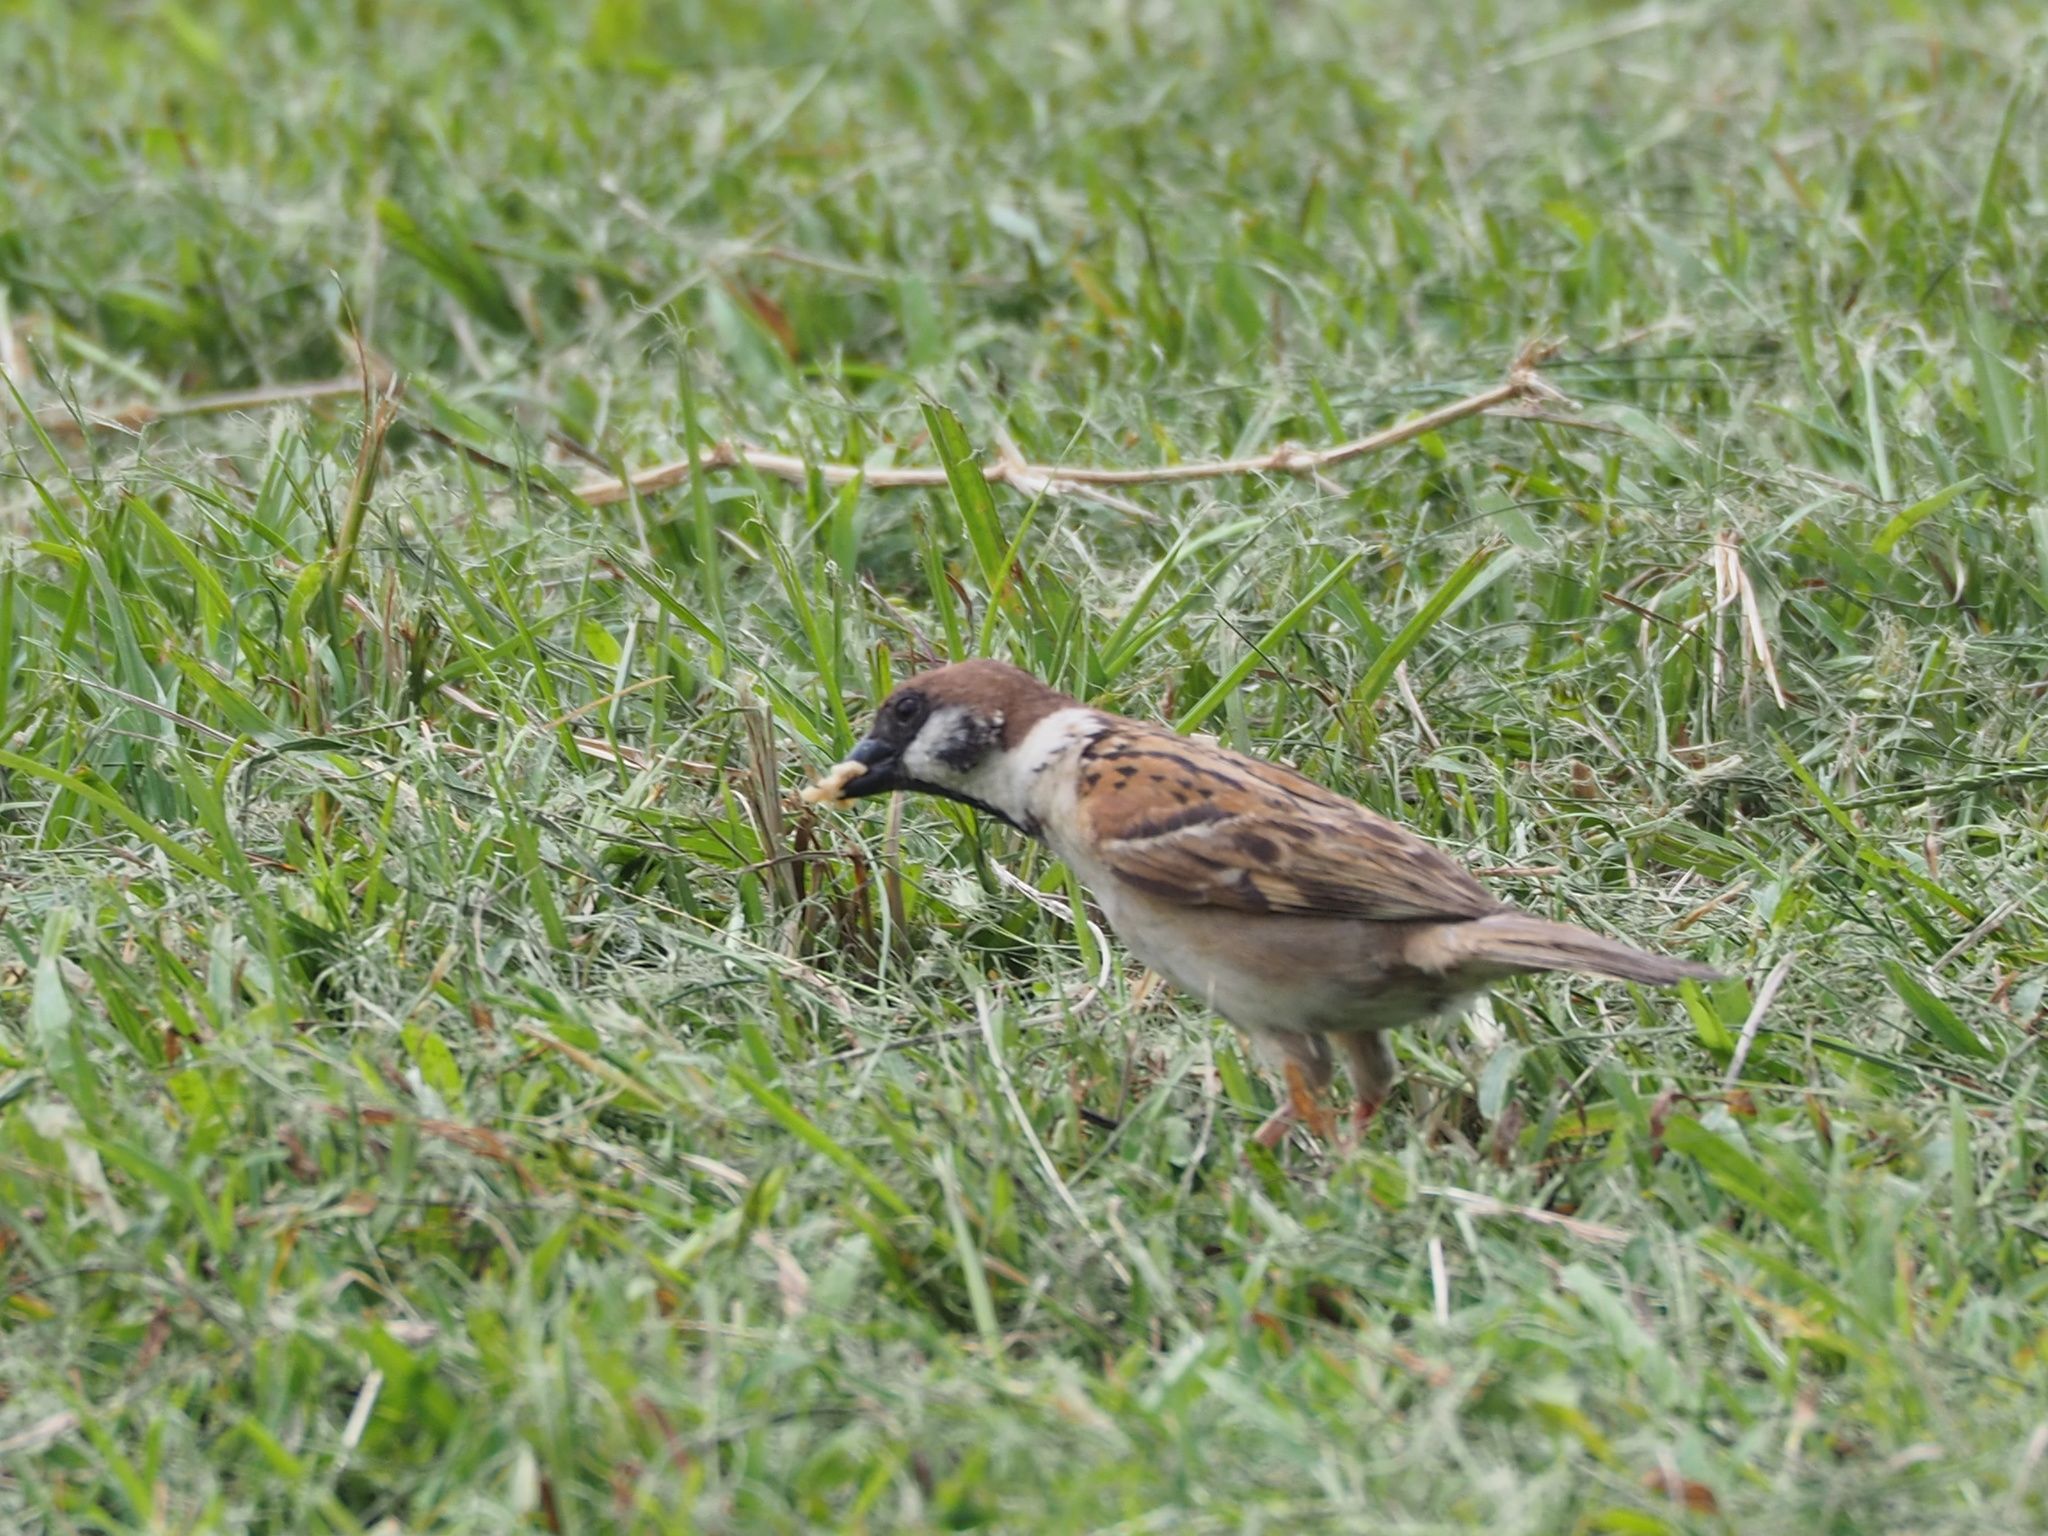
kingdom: Animalia
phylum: Chordata
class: Aves
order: Passeriformes
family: Passeridae
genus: Passer
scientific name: Passer montanus
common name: Eurasian tree sparrow
